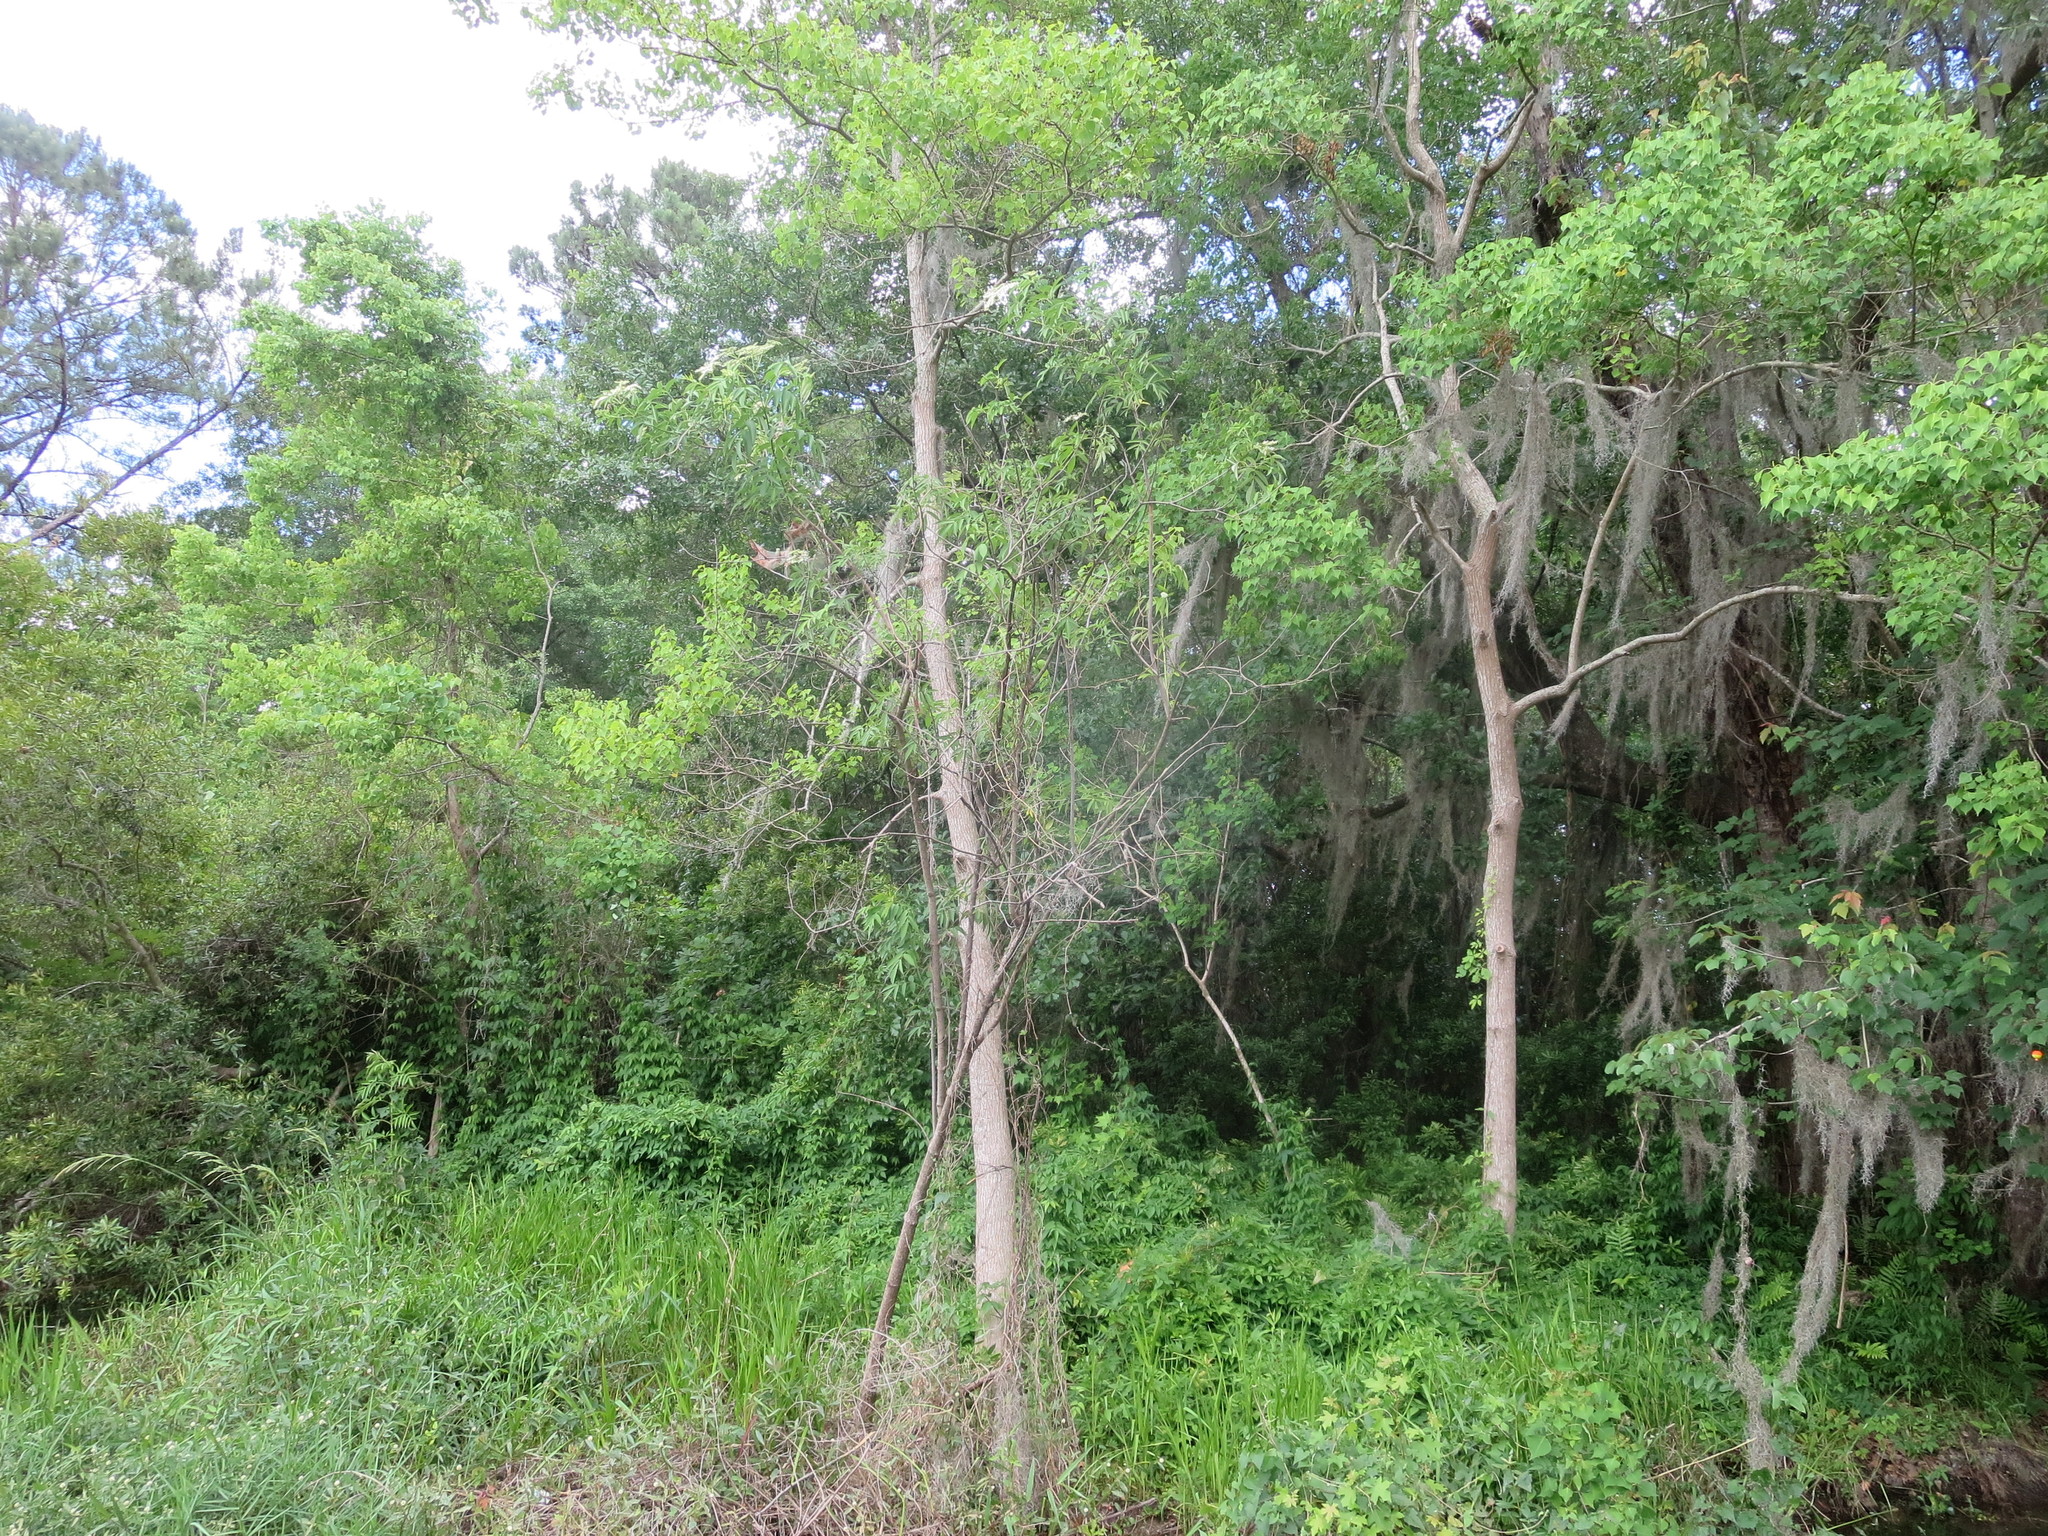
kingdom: Plantae
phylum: Tracheophyta
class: Magnoliopsida
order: Dipsacales
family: Viburnaceae
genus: Sambucus
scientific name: Sambucus canadensis
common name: American elder
